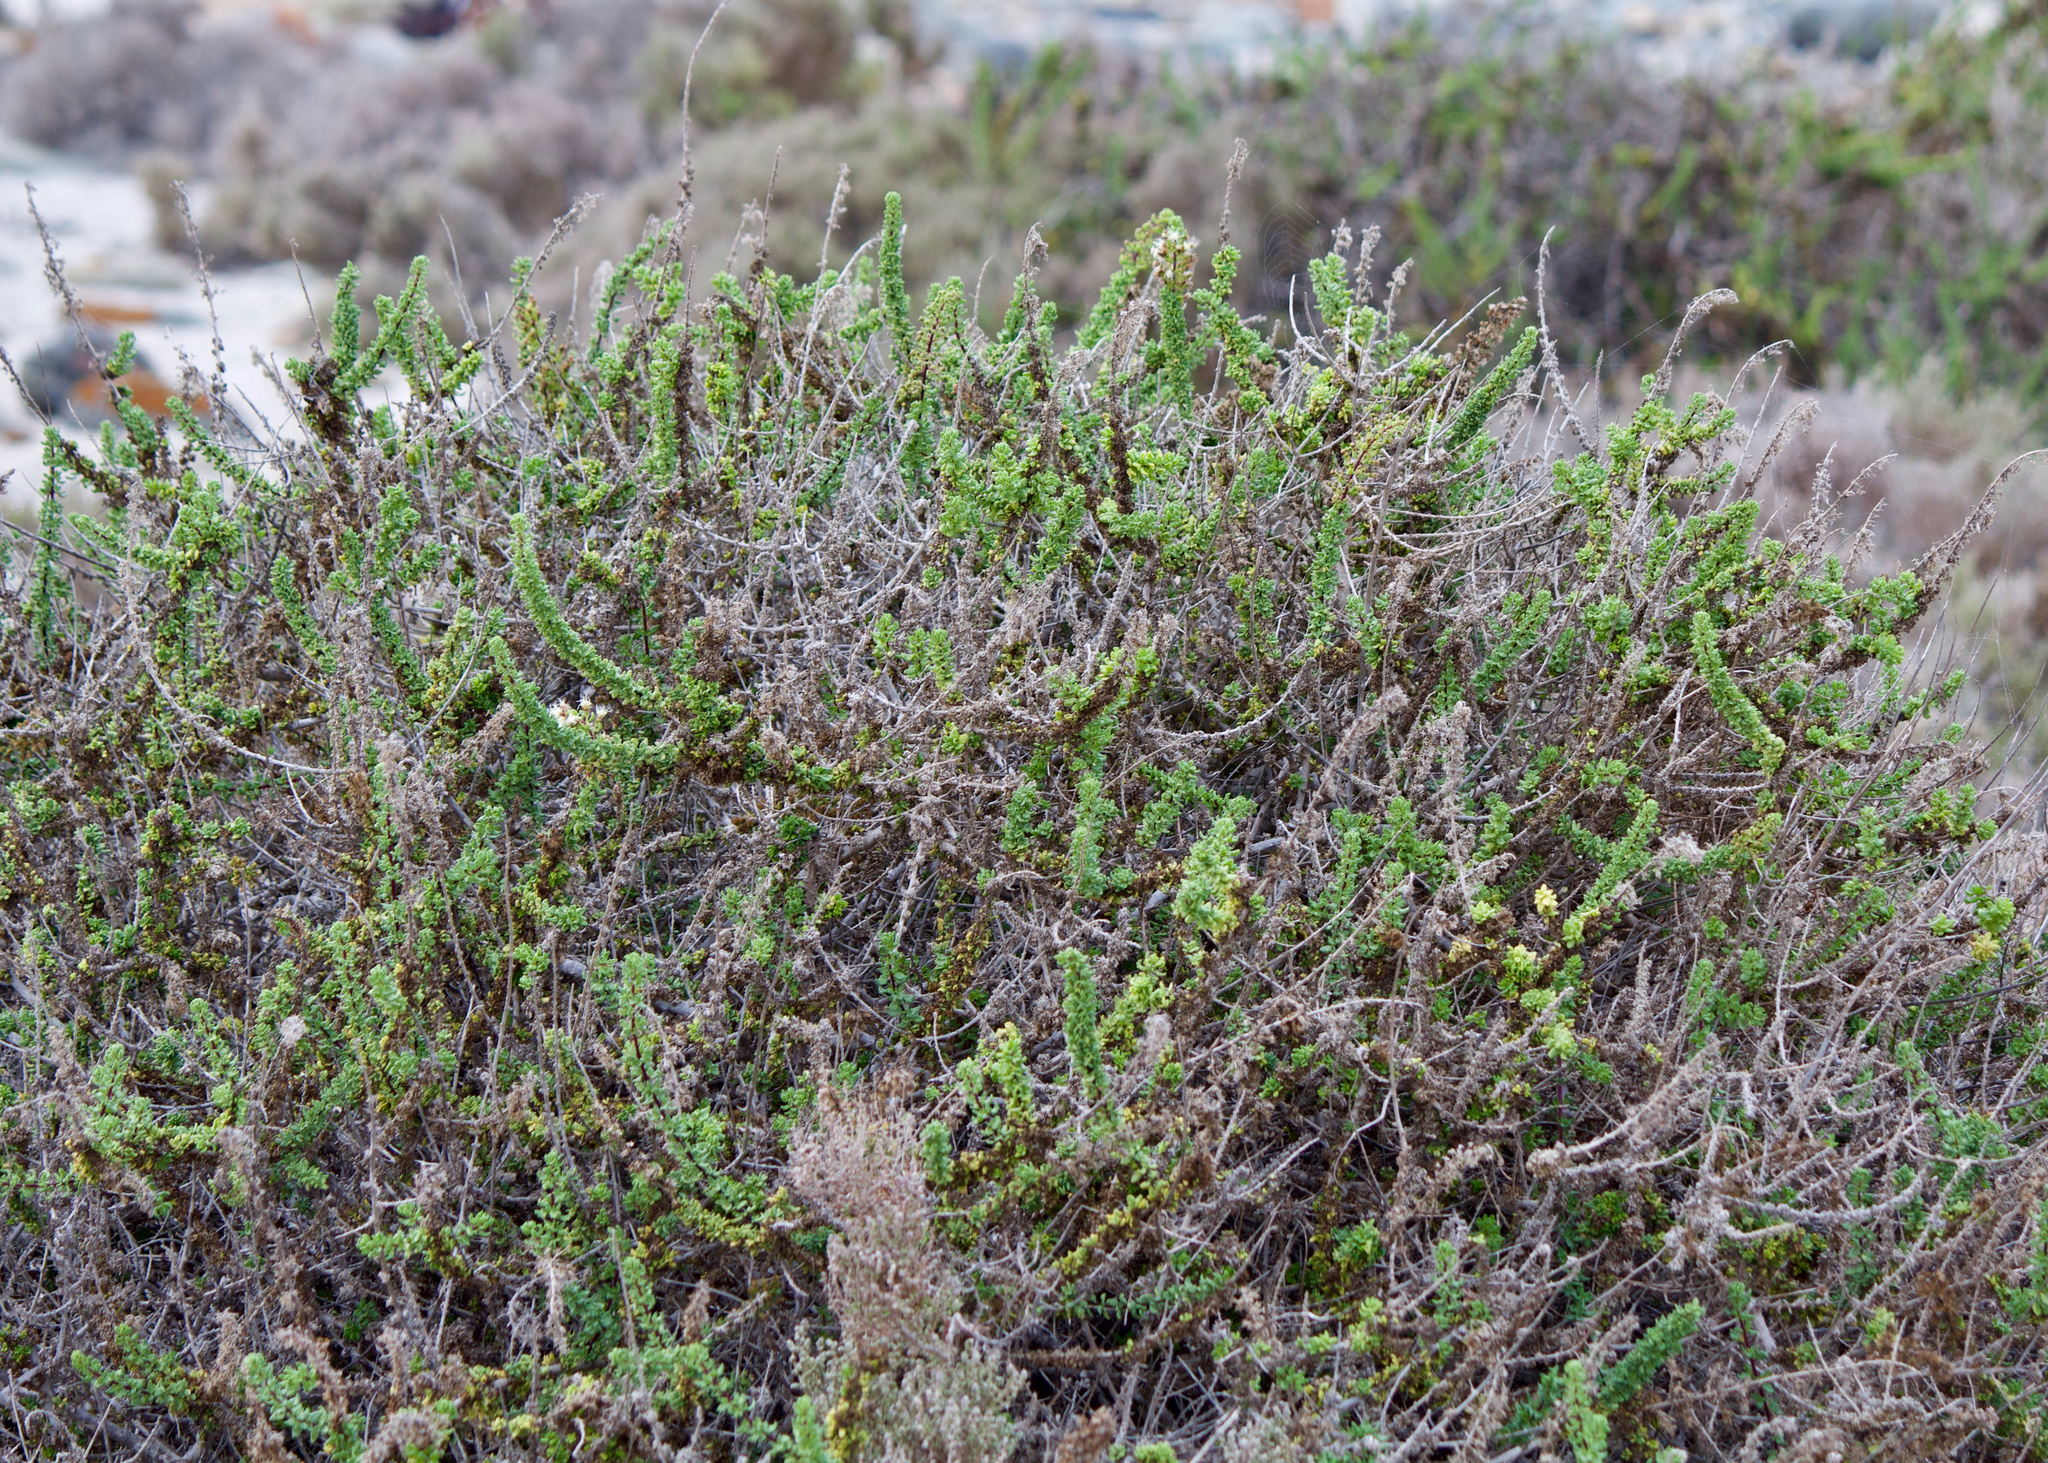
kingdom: Plantae
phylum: Tracheophyta
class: Magnoliopsida
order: Asterales
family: Asteraceae
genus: Ophryosporus
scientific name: Ophryosporus triangularis
